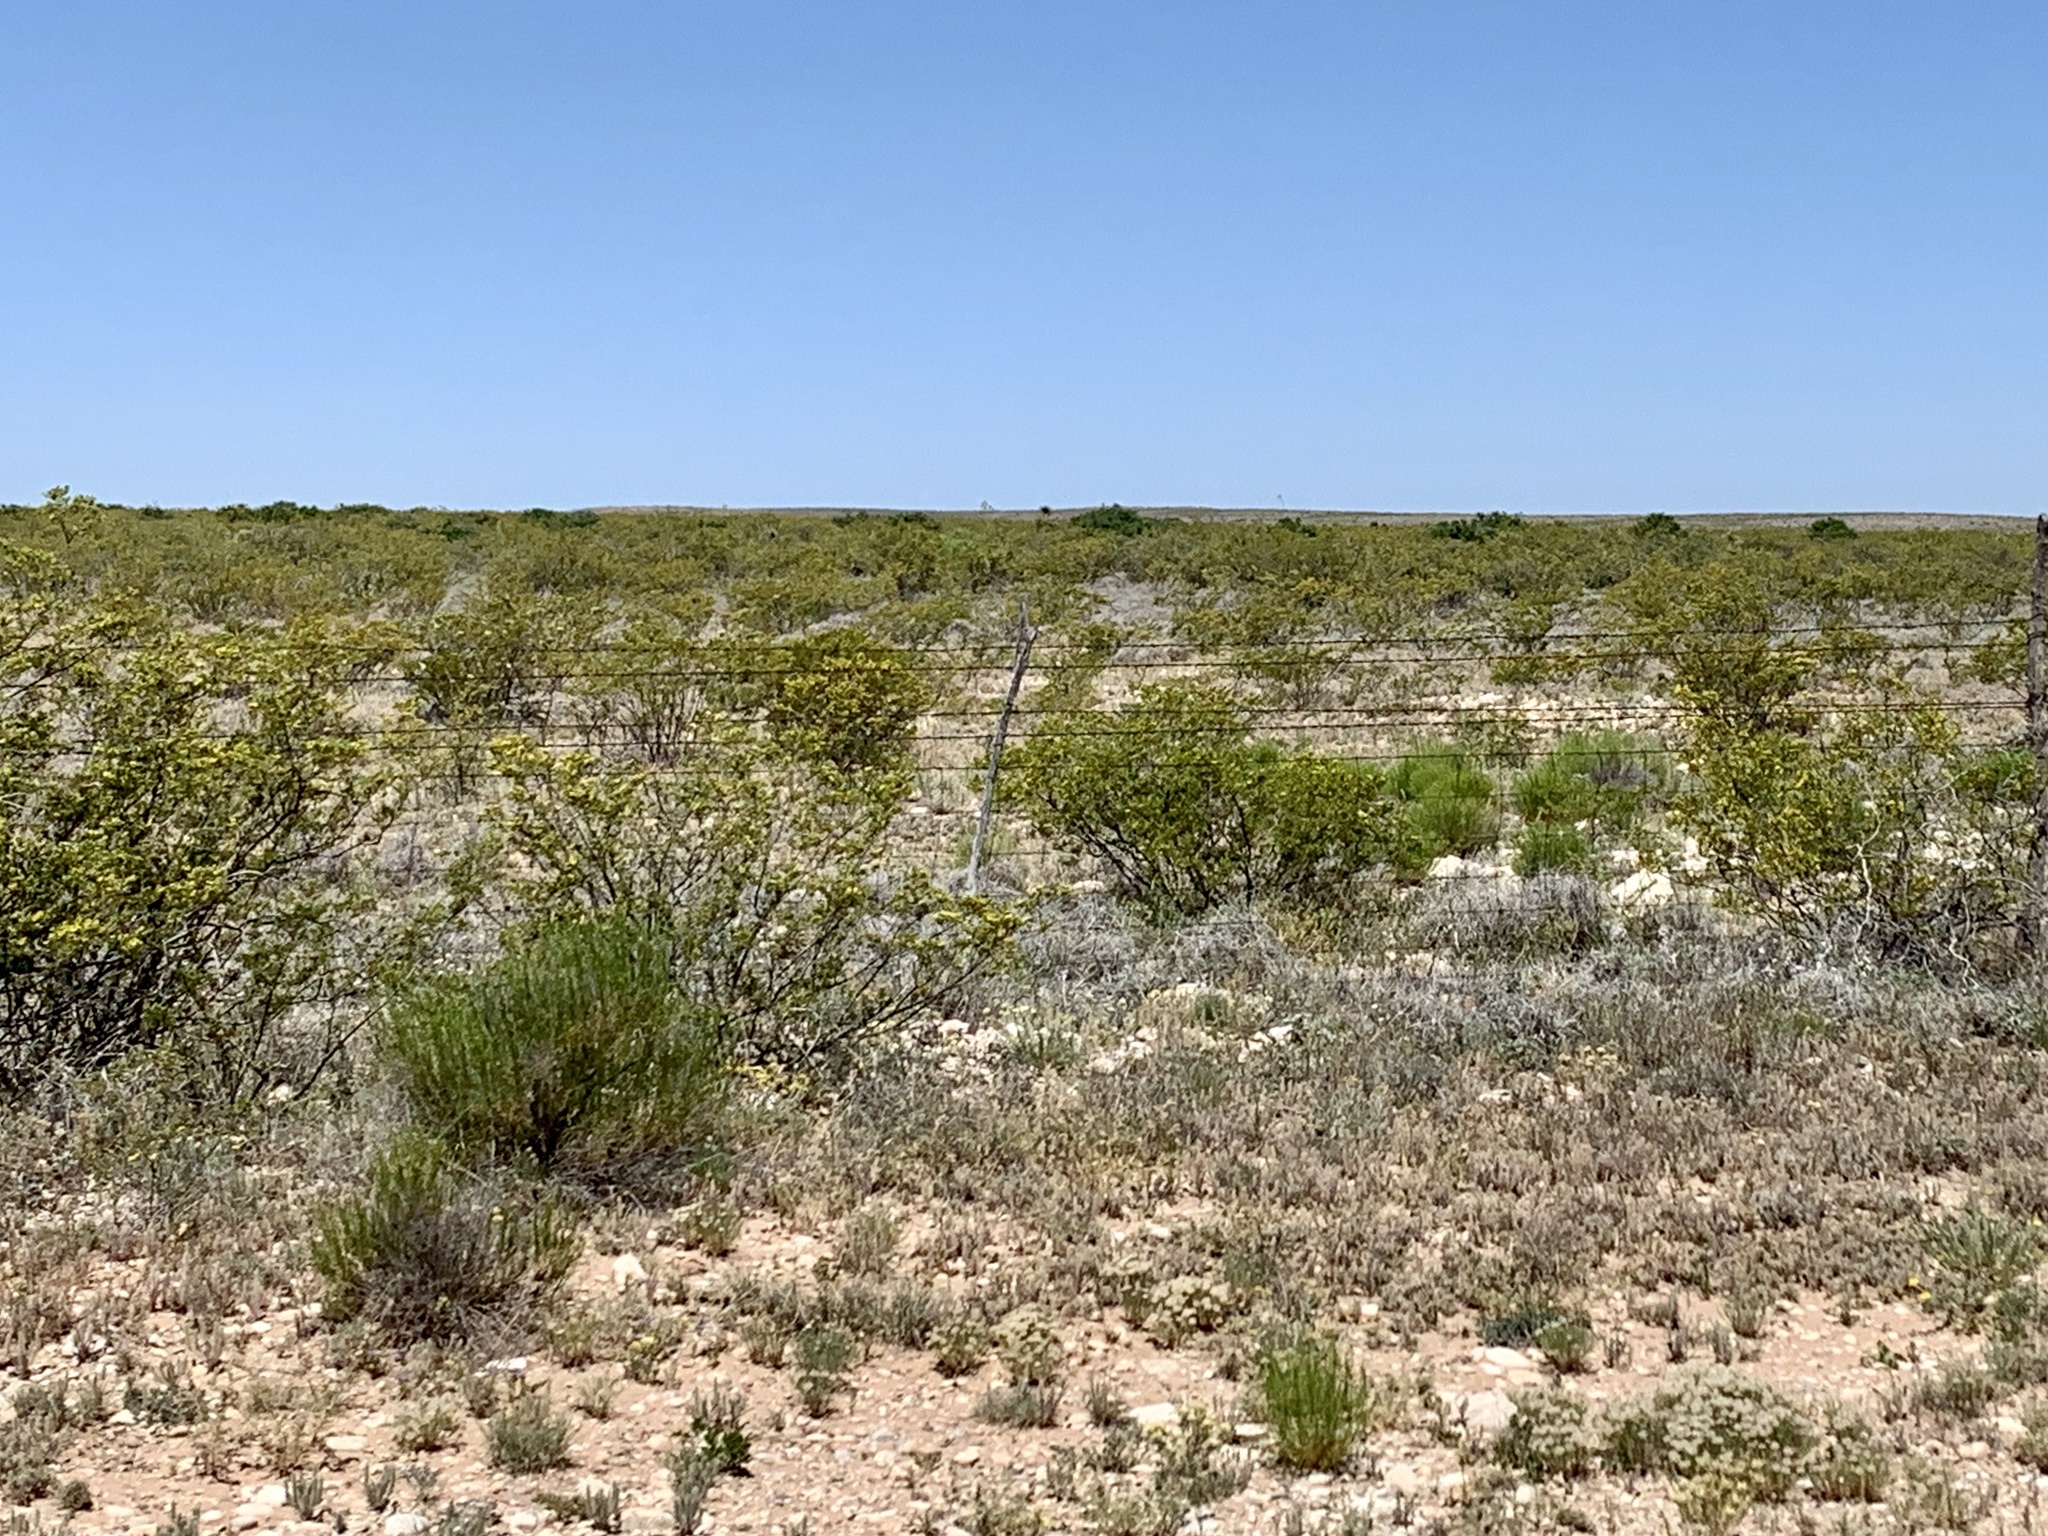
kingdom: Plantae
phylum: Tracheophyta
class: Magnoliopsida
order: Zygophyllales
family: Zygophyllaceae
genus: Larrea
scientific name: Larrea tridentata
